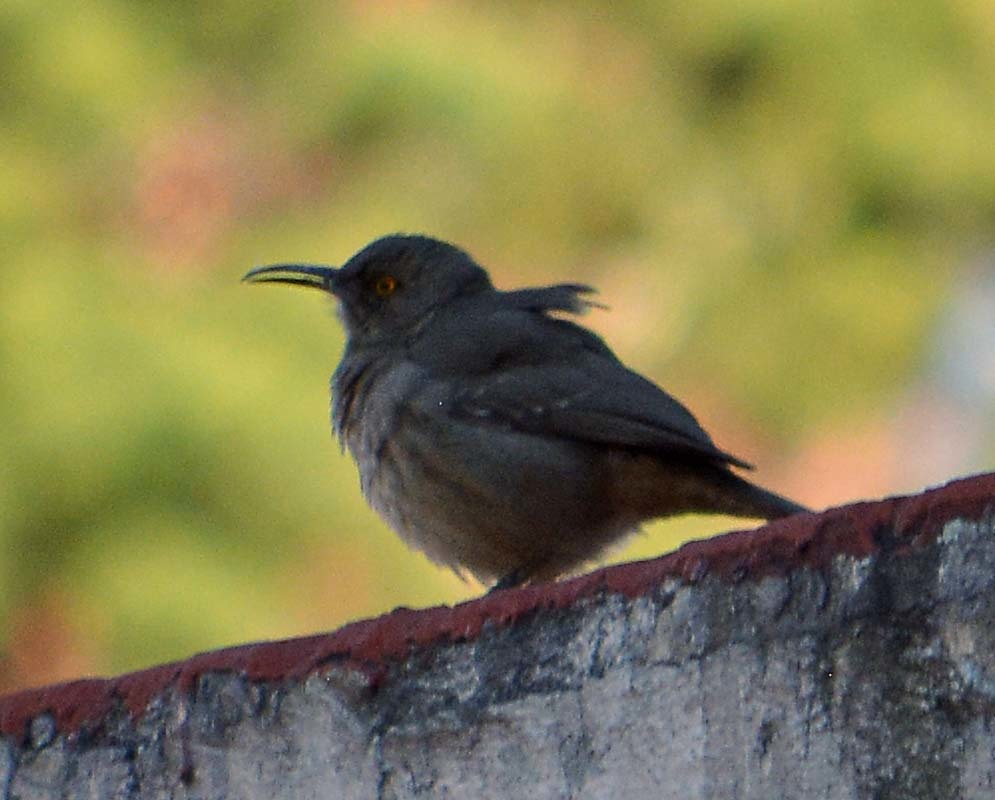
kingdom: Animalia
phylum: Chordata
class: Aves
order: Passeriformes
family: Mimidae
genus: Toxostoma
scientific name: Toxostoma curvirostre
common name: Curve-billed thrasher
